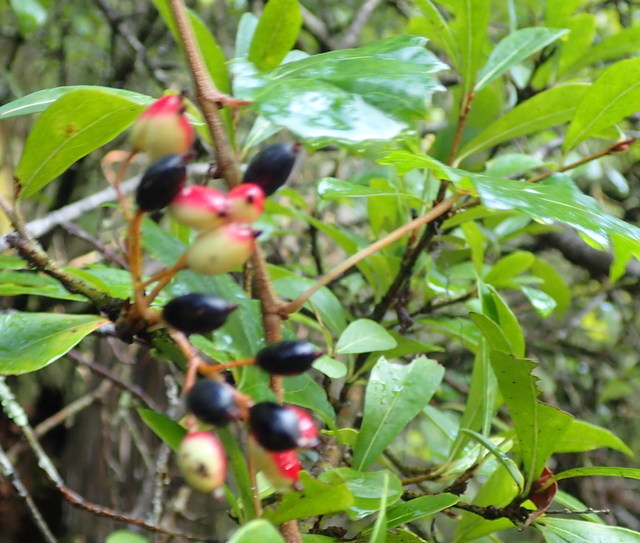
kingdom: Plantae
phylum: Tracheophyta
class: Magnoliopsida
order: Dipsacales
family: Viburnaceae
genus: Viburnum
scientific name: Viburnum obovatum
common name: Walter's viburnum
